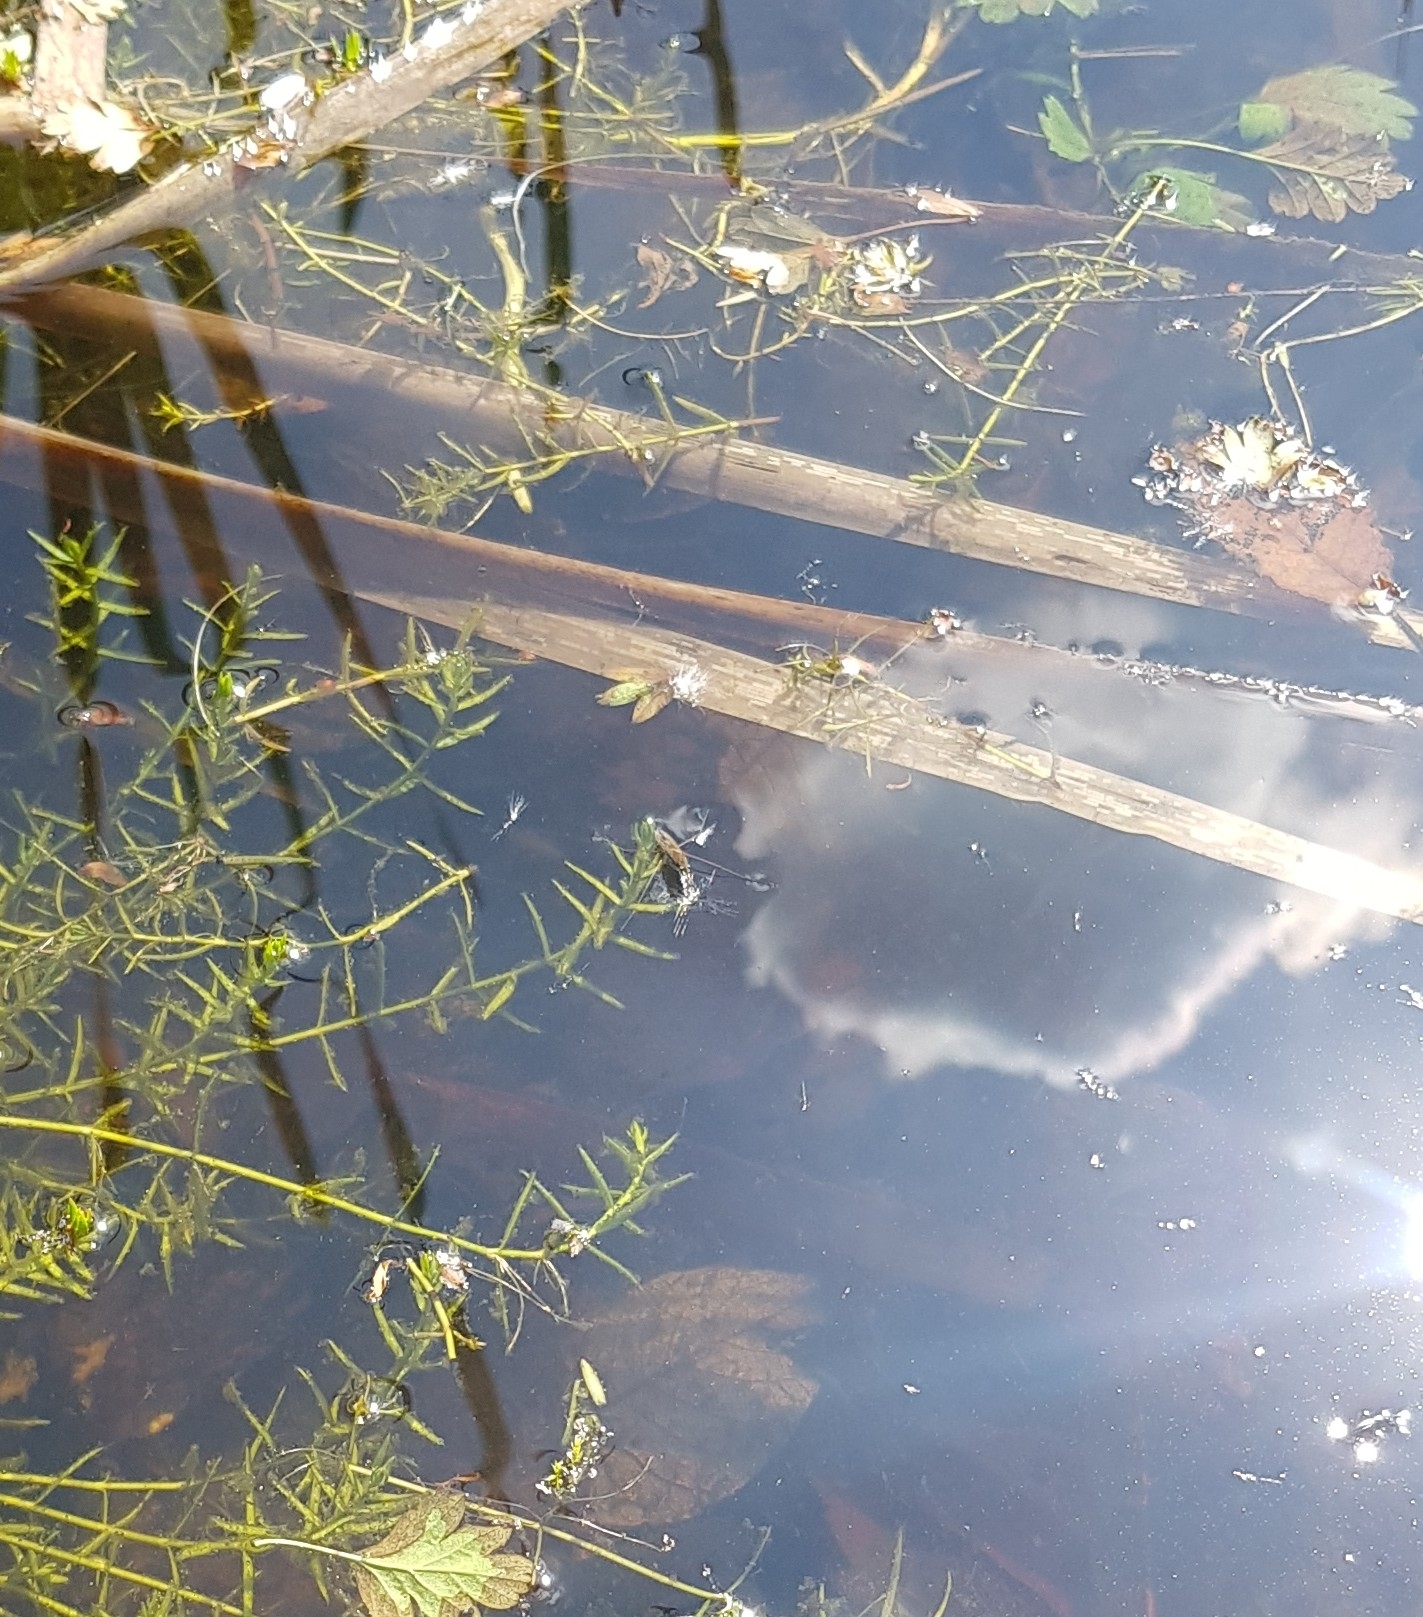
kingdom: Animalia
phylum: Arthropoda
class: Insecta
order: Hemiptera
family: Gerridae
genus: Gerris
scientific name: Gerris
